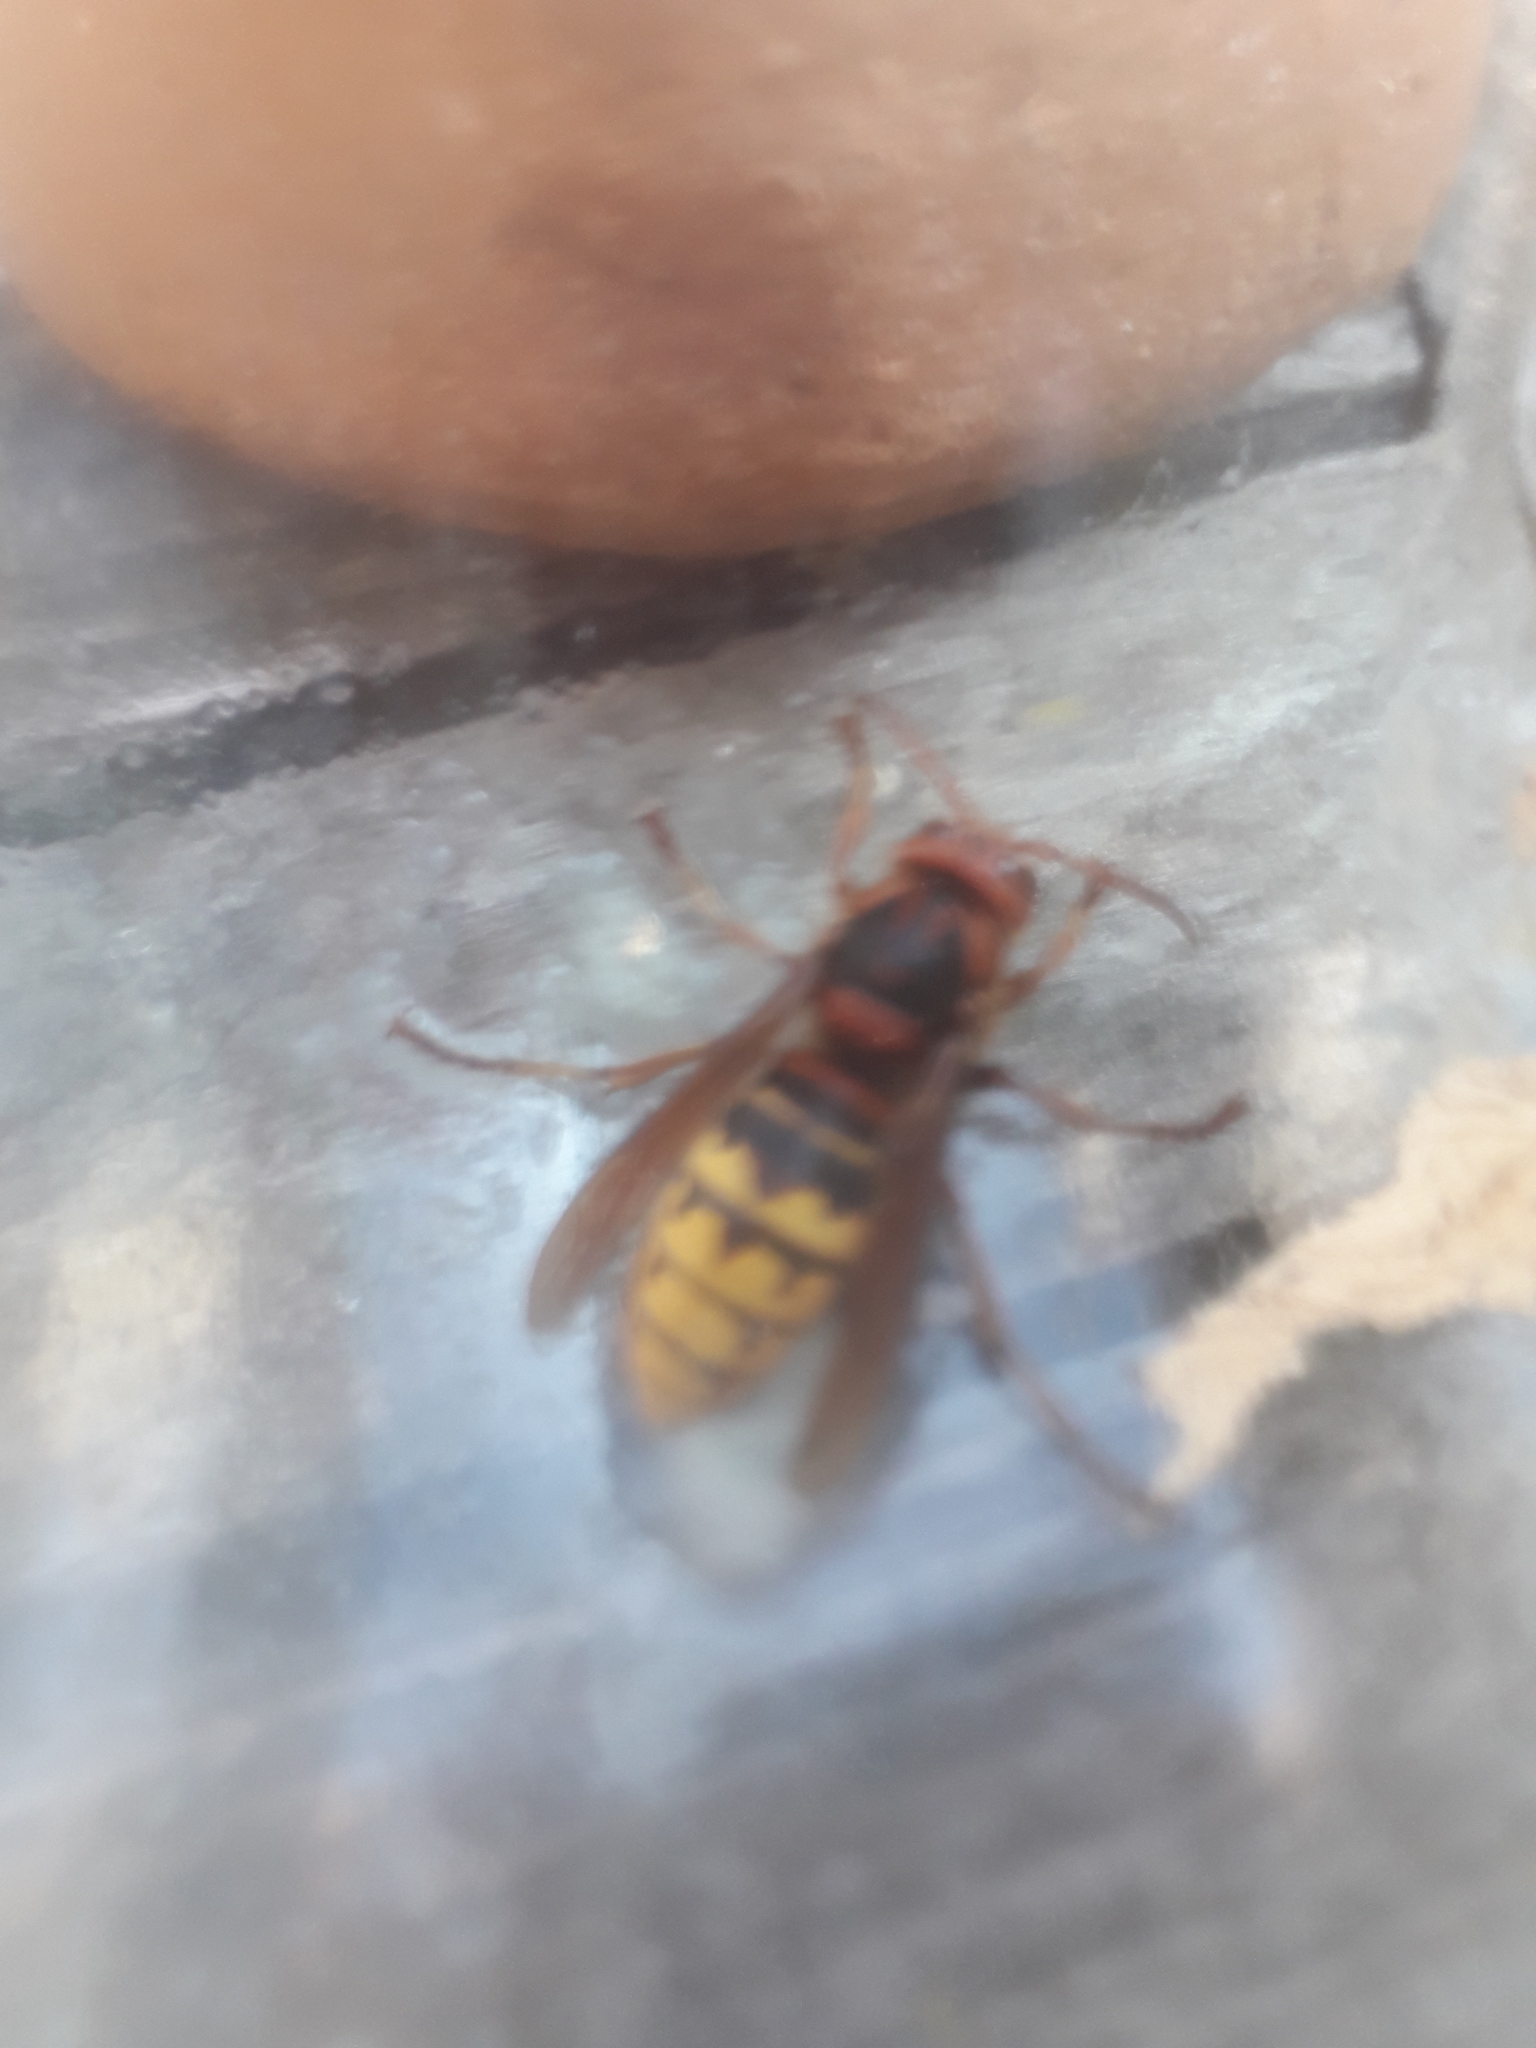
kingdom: Animalia
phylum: Arthropoda
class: Insecta
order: Hymenoptera
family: Vespidae
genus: Vespa
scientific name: Vespa crabro
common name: Hornet
